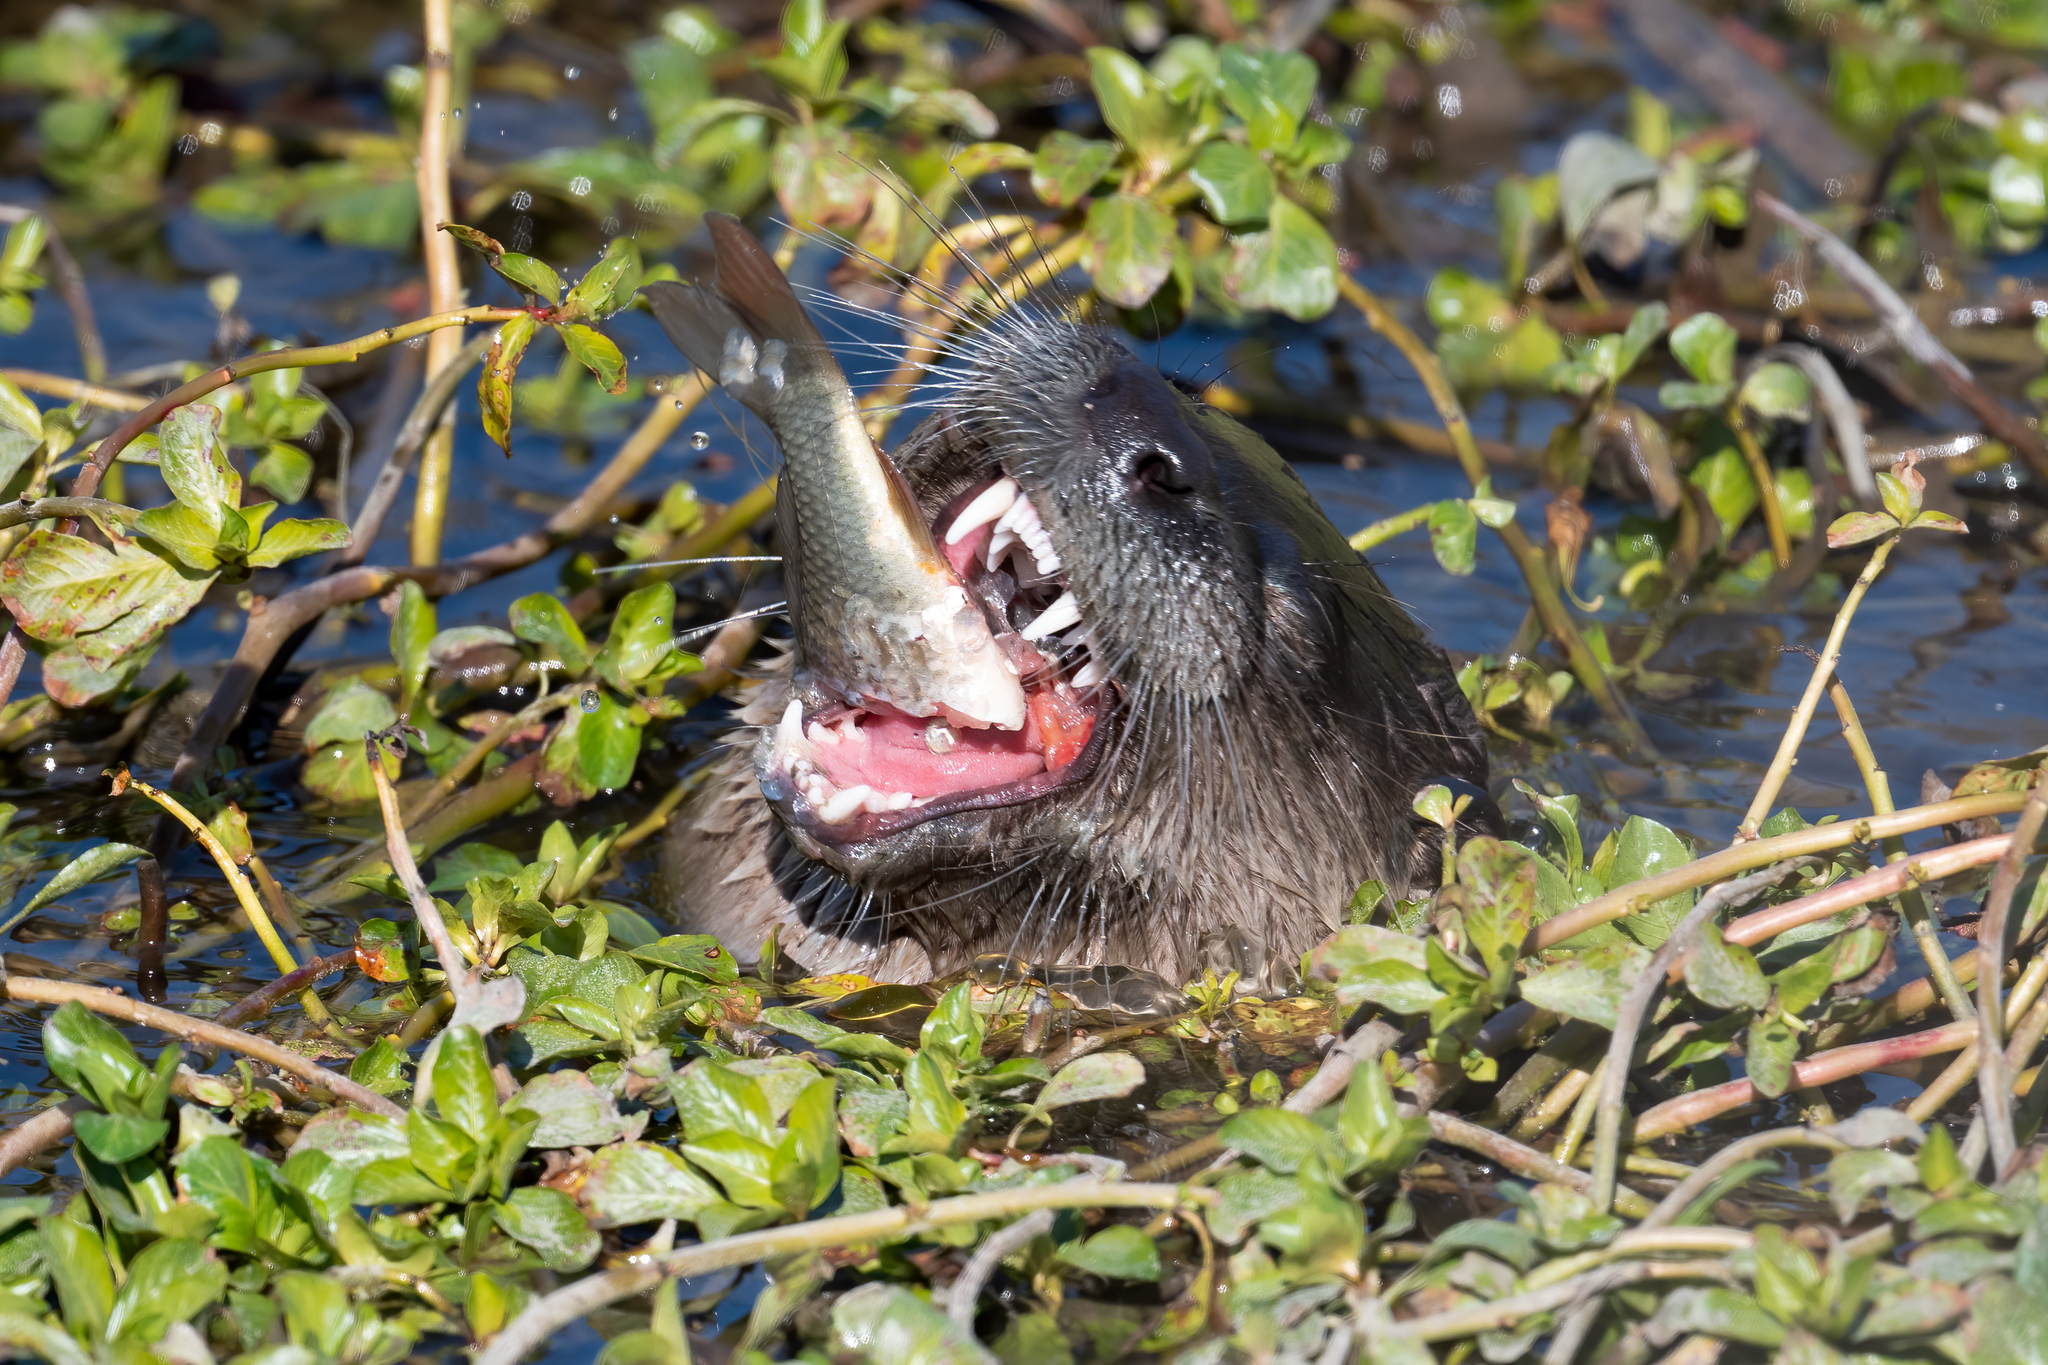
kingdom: Animalia
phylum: Chordata
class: Mammalia
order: Carnivora
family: Mustelidae
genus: Lontra
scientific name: Lontra canadensis
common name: North american river otter
